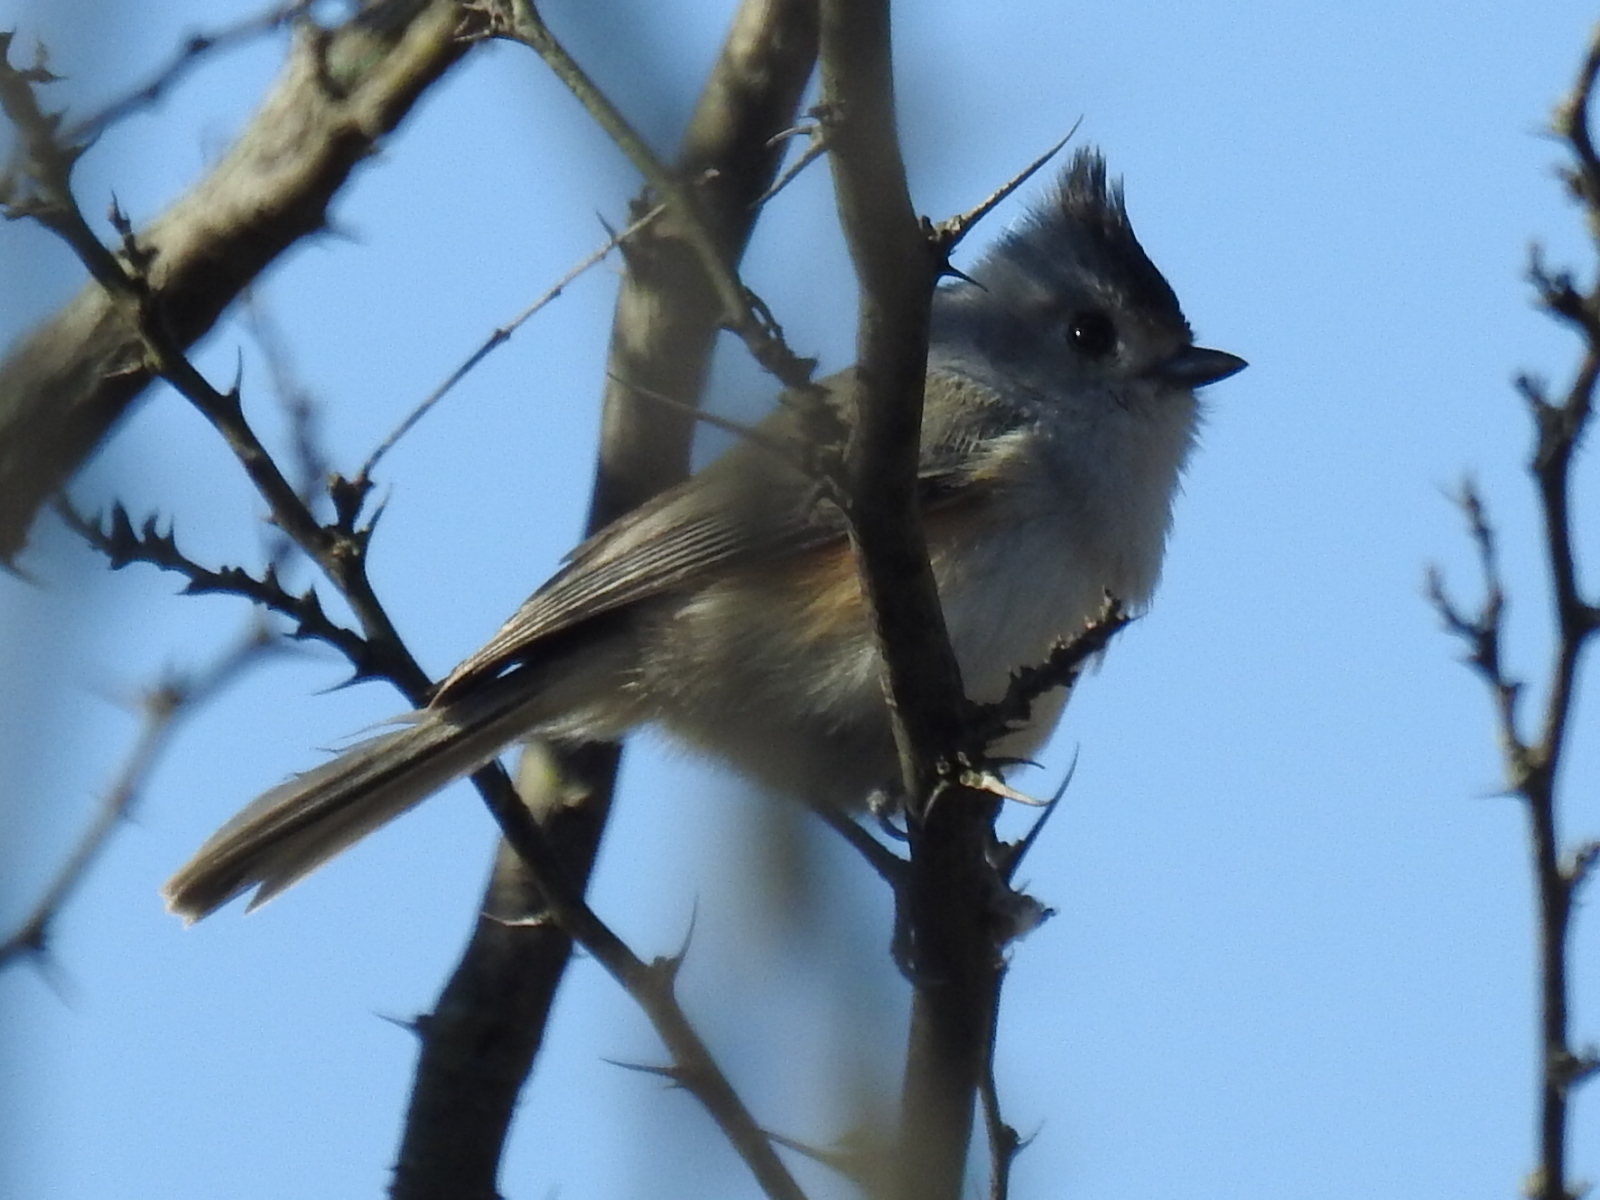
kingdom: Animalia
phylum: Chordata
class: Aves
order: Passeriformes
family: Paridae
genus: Baeolophus
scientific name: Baeolophus atricristatus
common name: Black-crested titmouse
